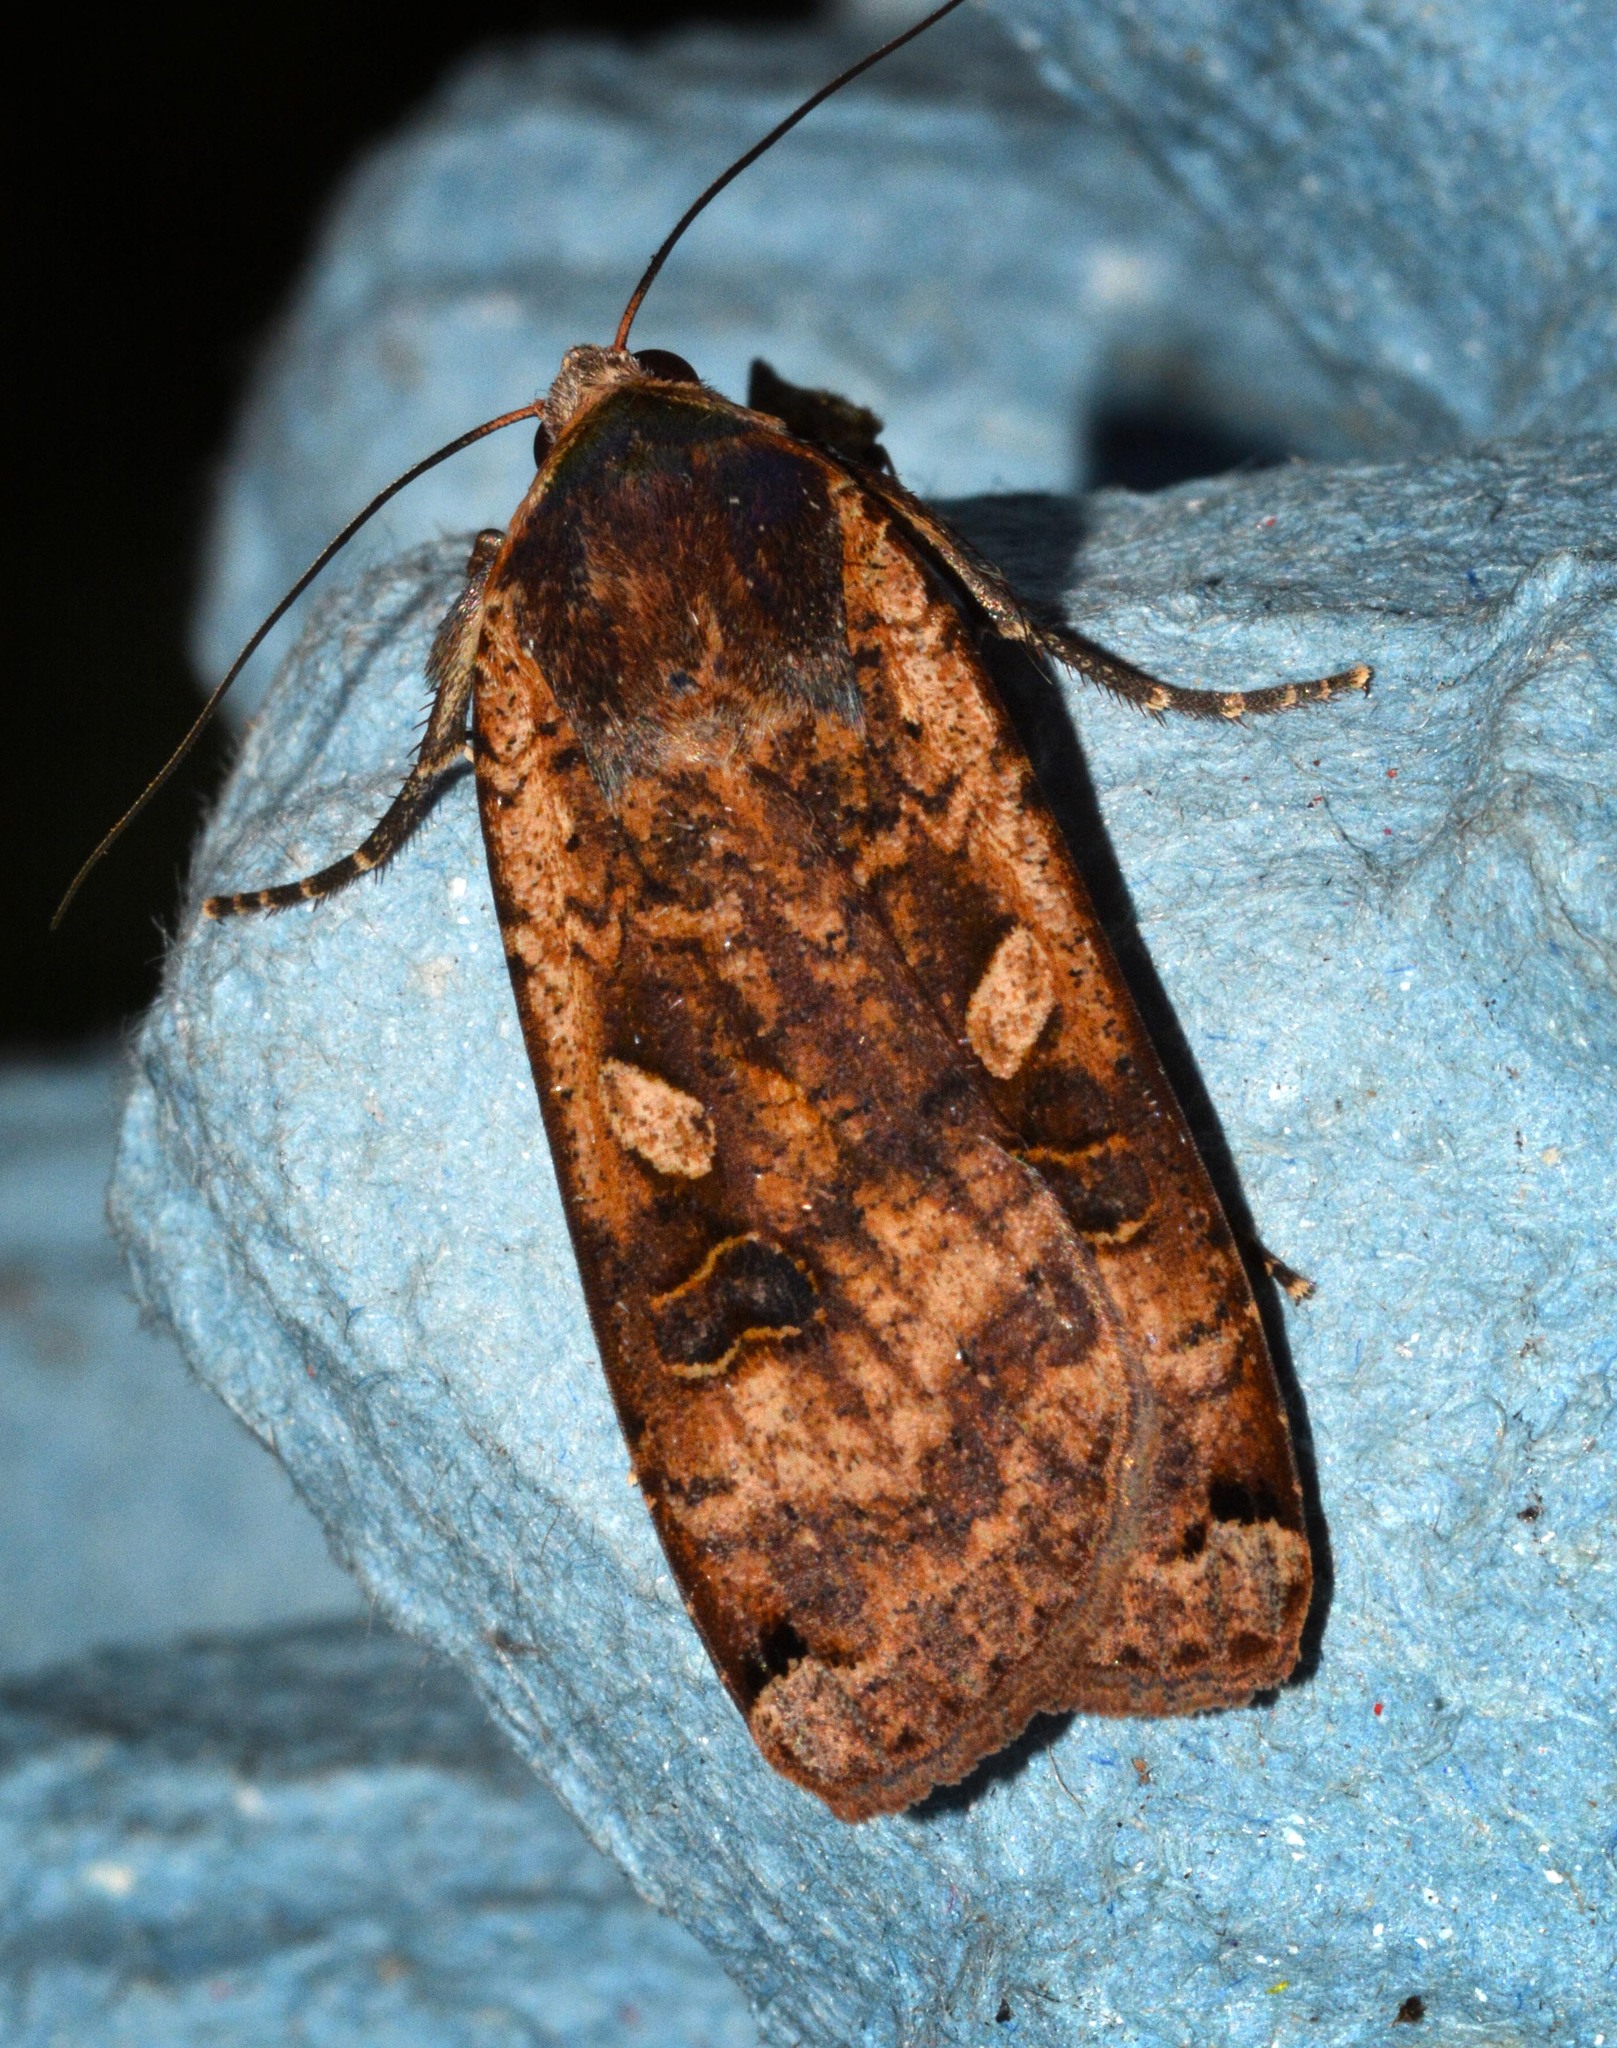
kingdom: Animalia
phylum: Arthropoda
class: Insecta
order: Lepidoptera
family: Noctuidae
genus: Noctua
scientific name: Noctua pronuba
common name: Large yellow underwing
